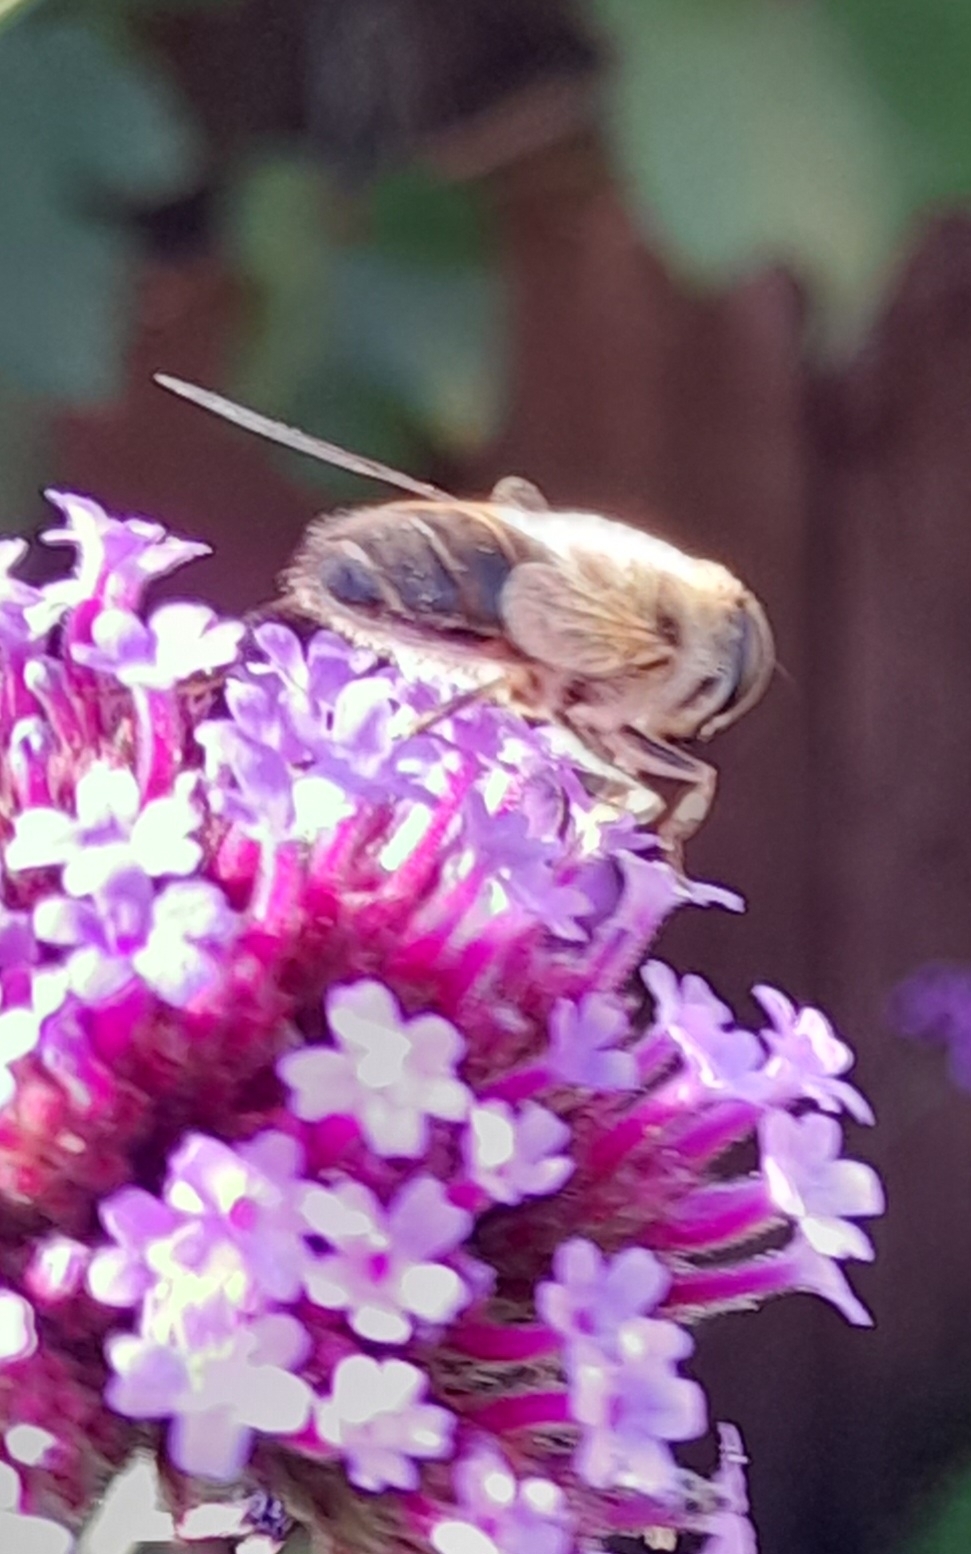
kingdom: Animalia
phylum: Arthropoda
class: Insecta
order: Diptera
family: Syrphidae
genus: Eristalis
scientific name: Eristalis
